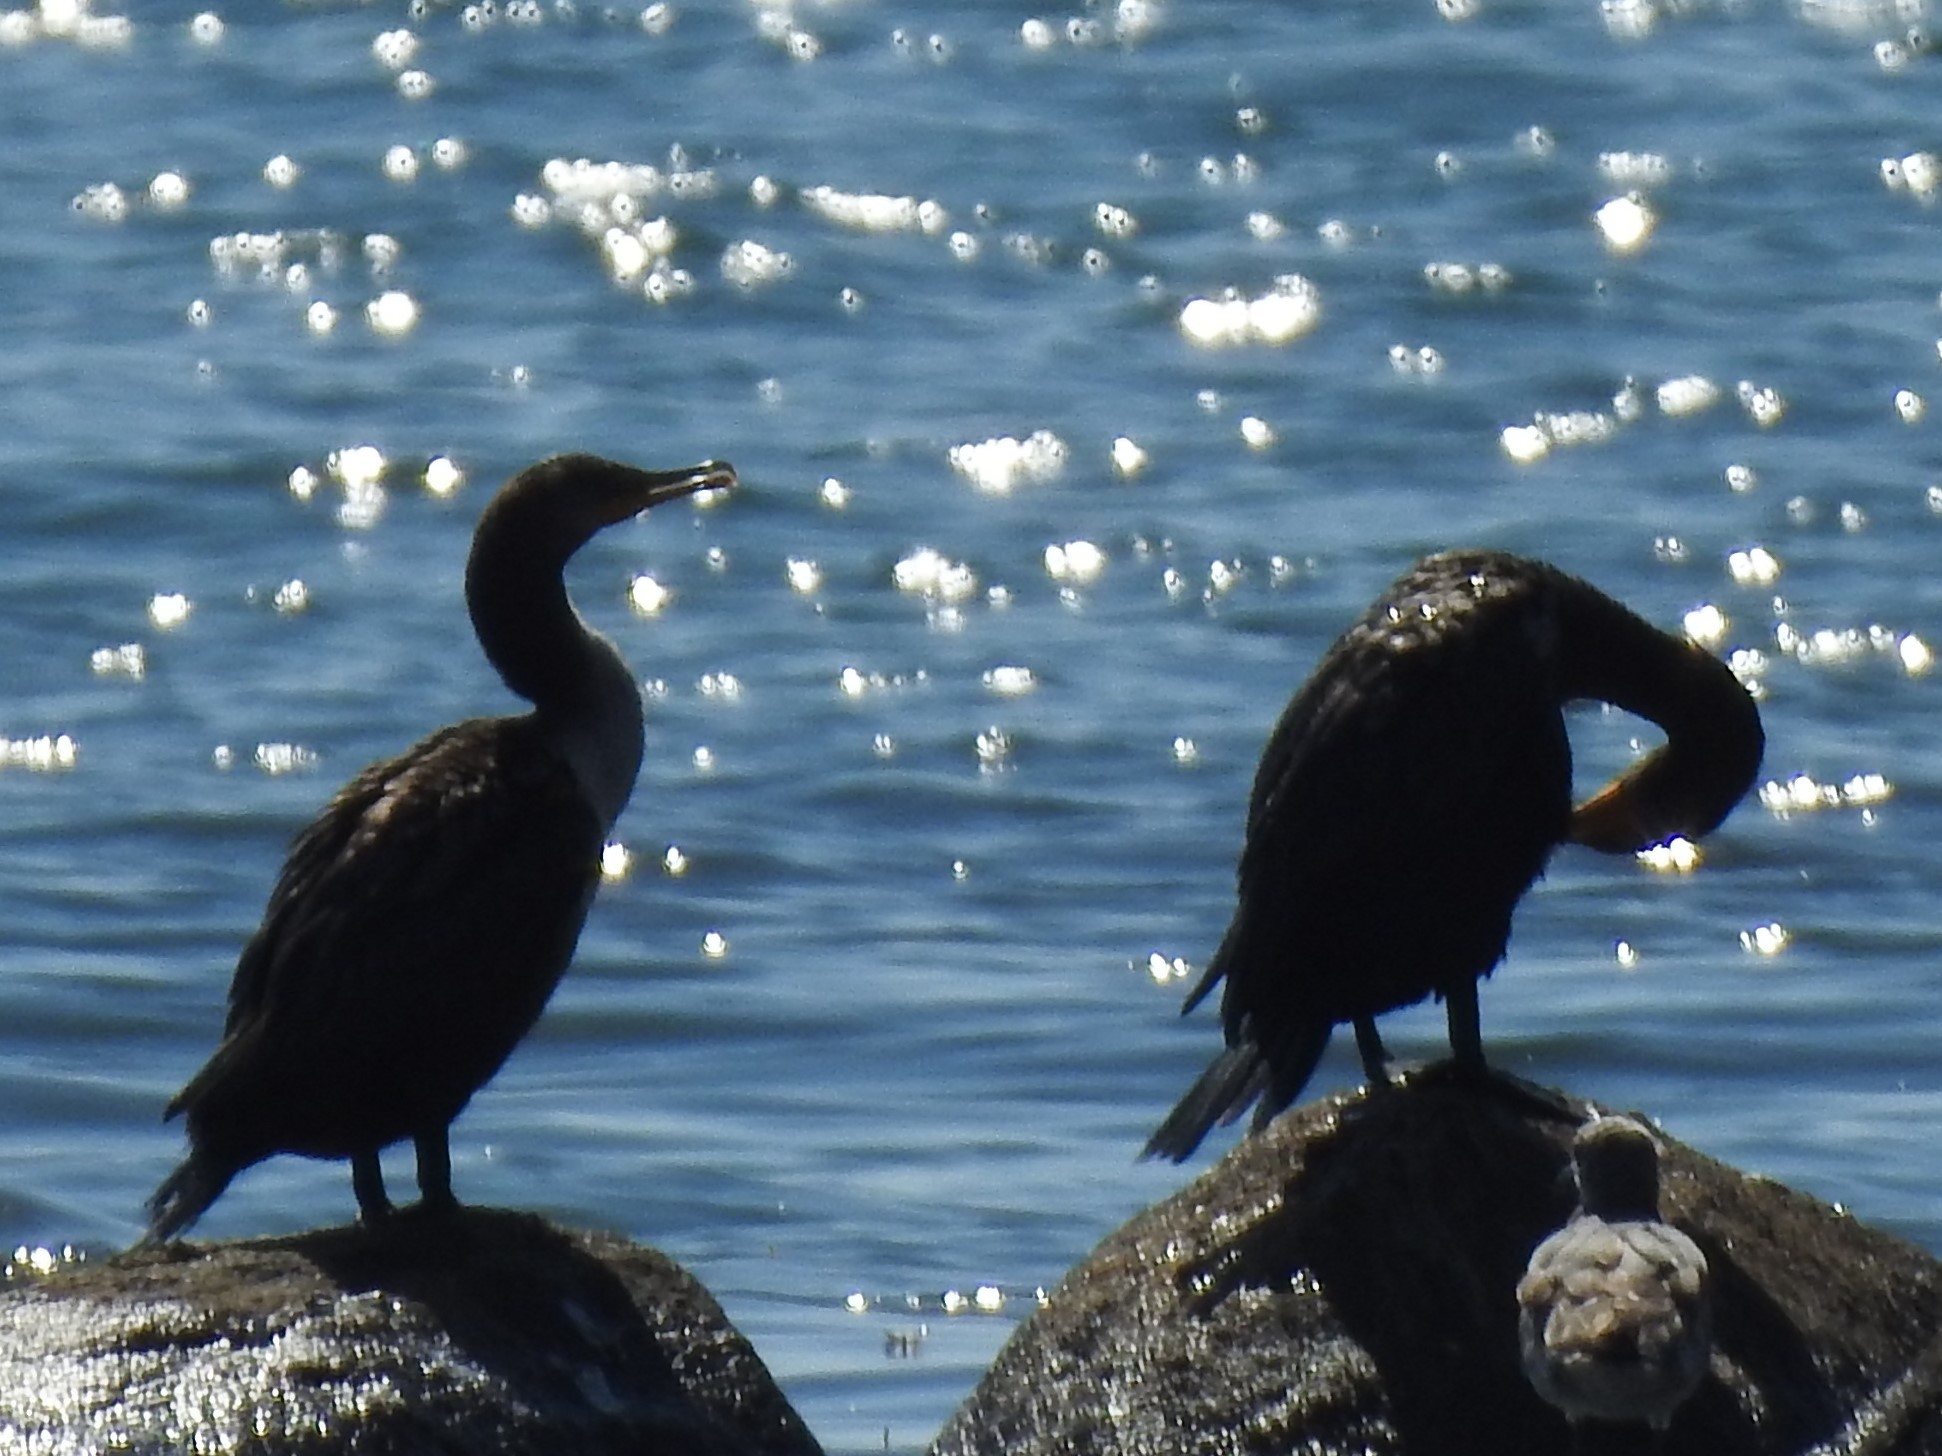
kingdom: Animalia
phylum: Chordata
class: Aves
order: Suliformes
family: Phalacrocoracidae
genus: Phalacrocorax
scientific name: Phalacrocorax auritus
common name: Double-crested cormorant
